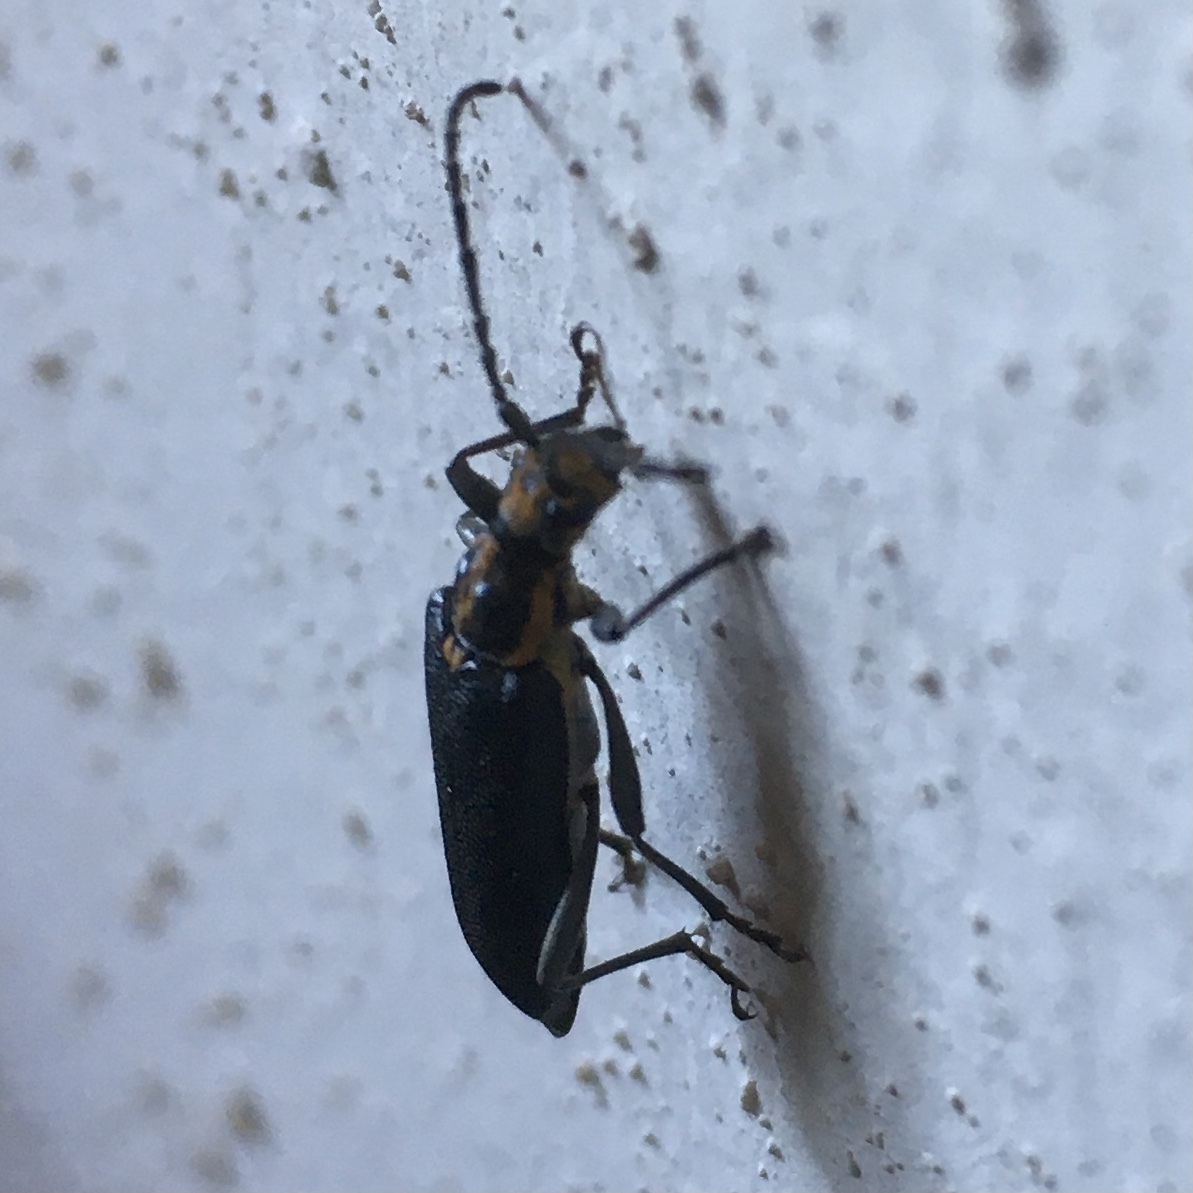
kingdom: Animalia
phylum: Arthropoda
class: Insecta
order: Coleoptera
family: Cerambycidae
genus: Enoploderes
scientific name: Enoploderes vitticollis
